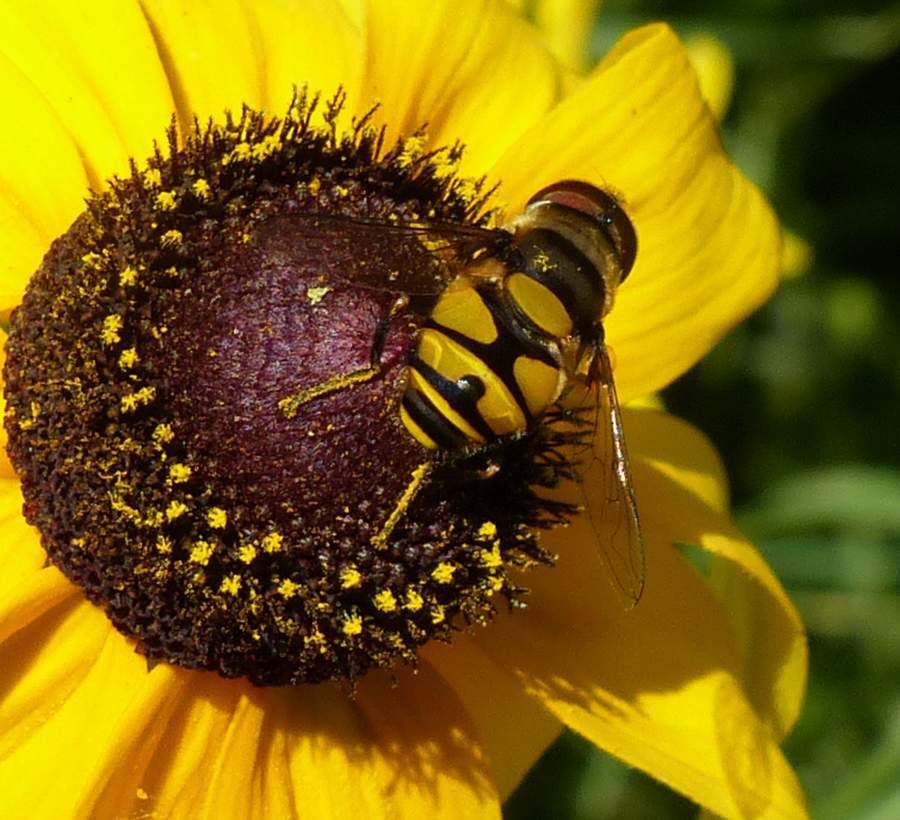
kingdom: Animalia
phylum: Arthropoda
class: Insecta
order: Diptera
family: Syrphidae
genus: Eristalis
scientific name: Eristalis transversa
